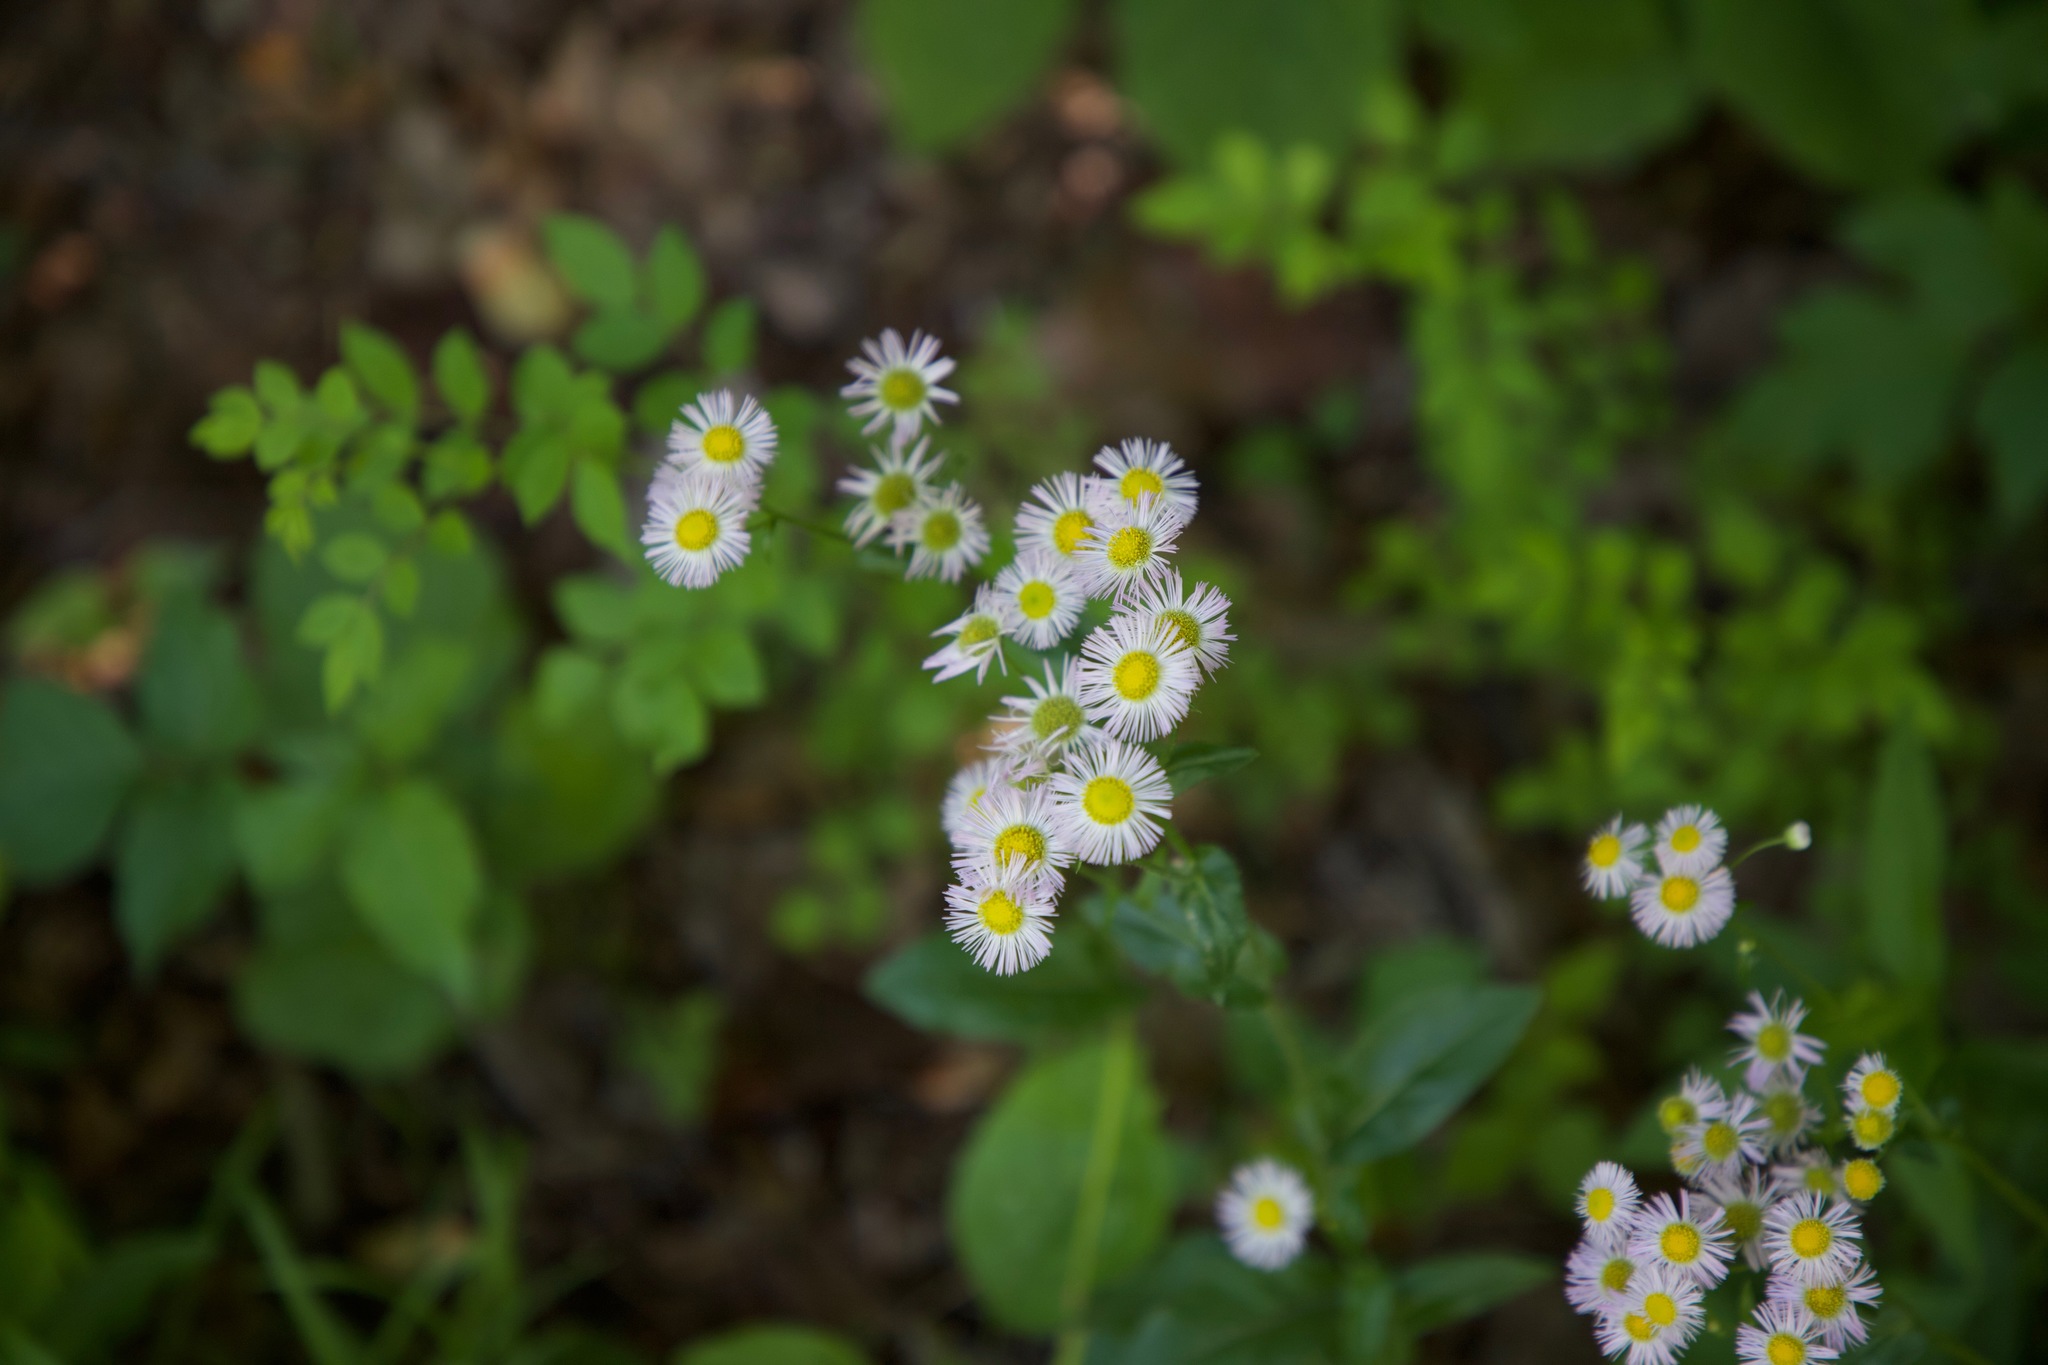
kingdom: Plantae
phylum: Tracheophyta
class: Magnoliopsida
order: Asterales
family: Asteraceae
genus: Erigeron
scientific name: Erigeron philadelphicus
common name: Robin's-plantain
